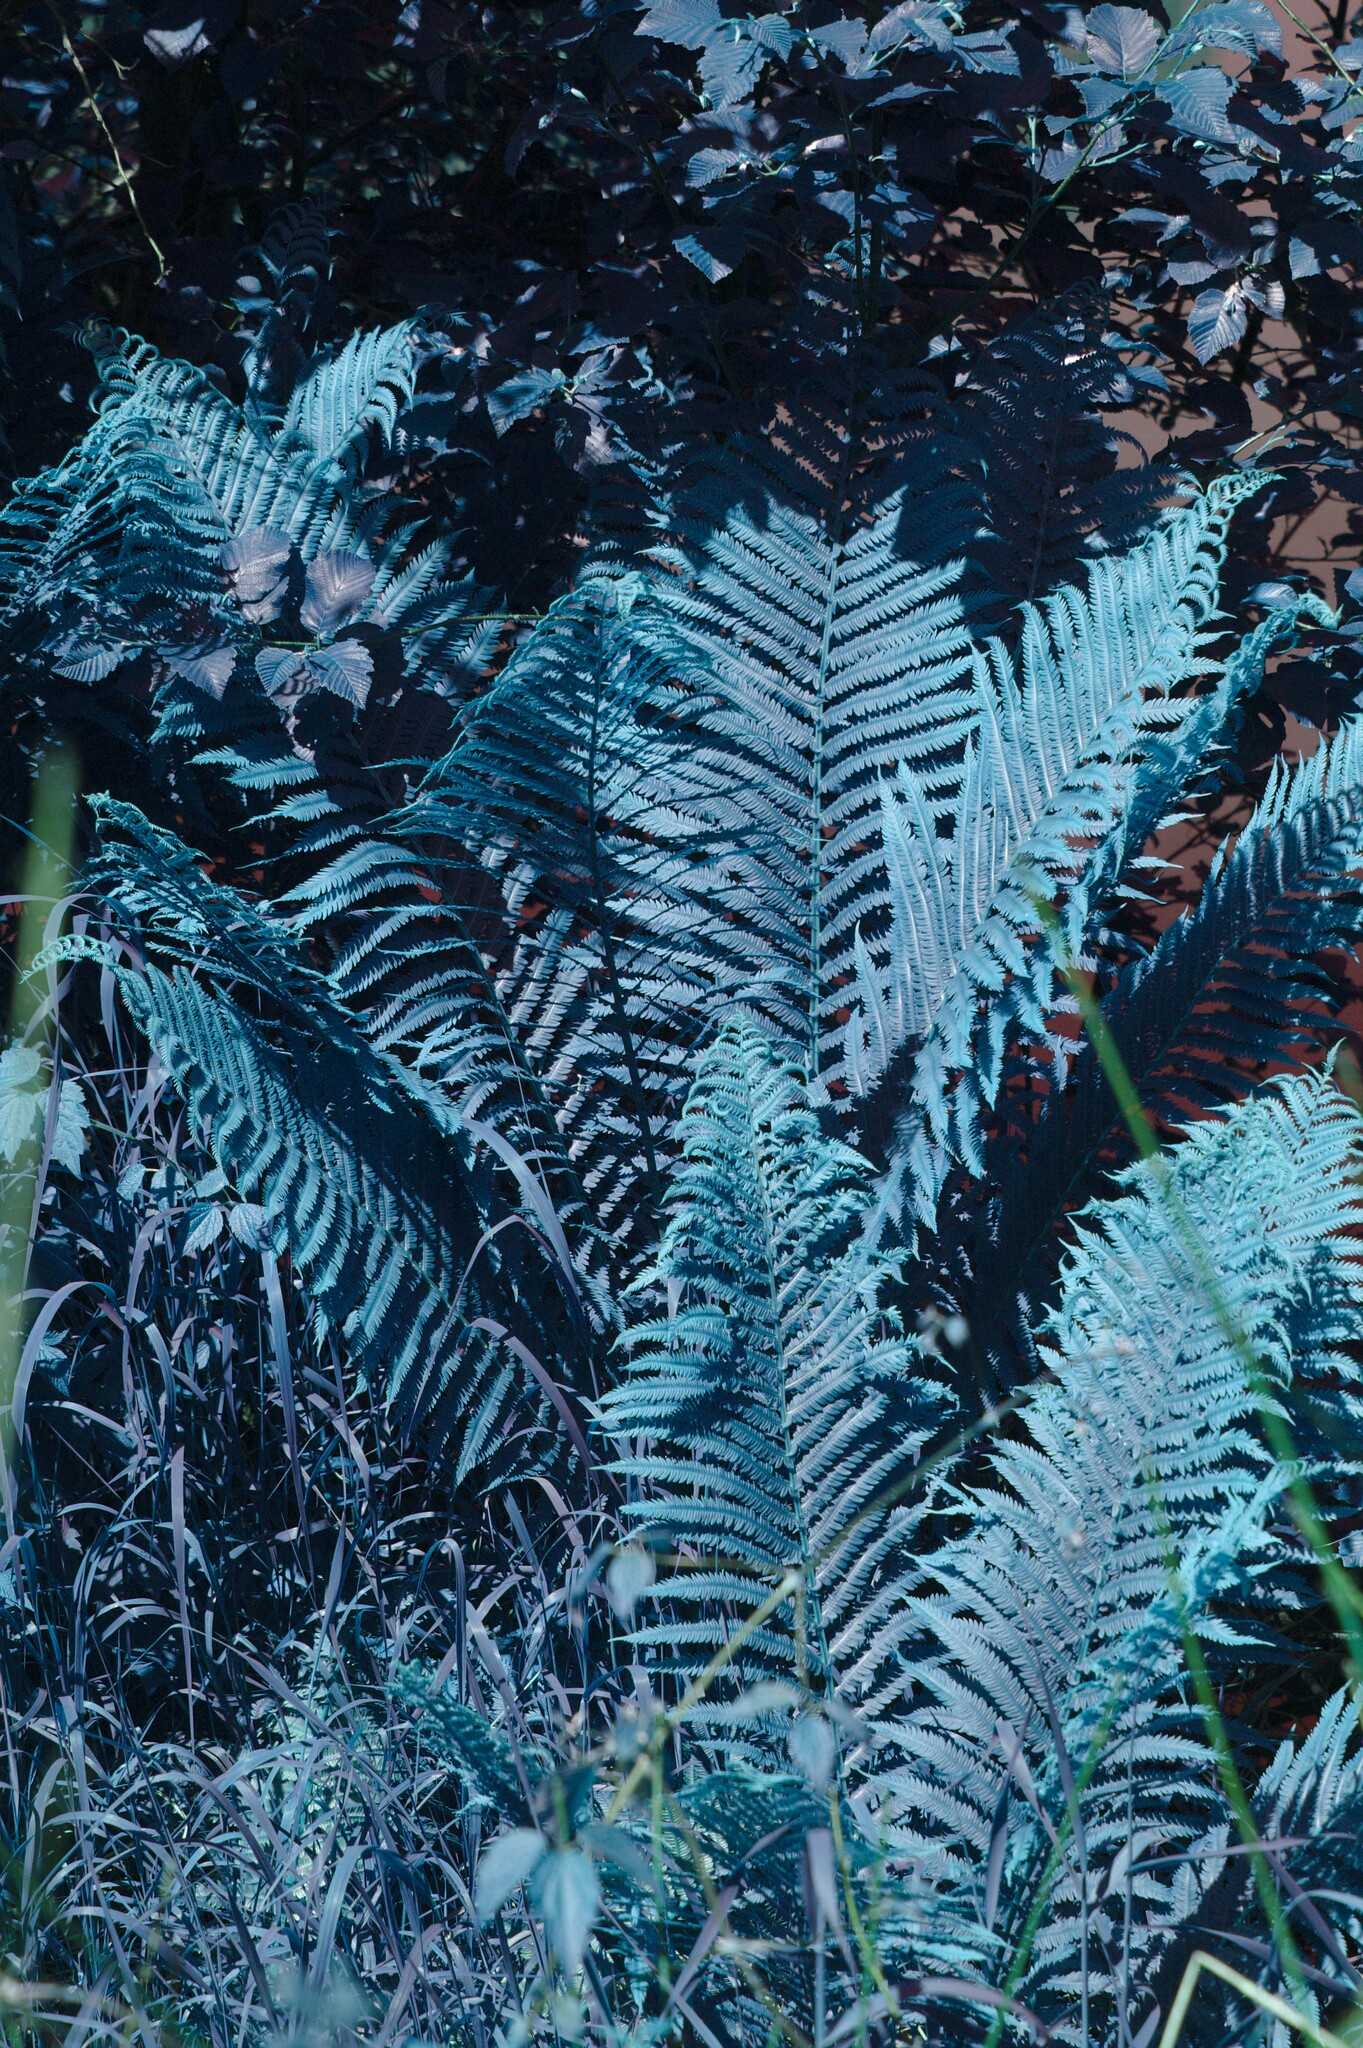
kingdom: Plantae
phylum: Tracheophyta
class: Polypodiopsida
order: Polypodiales
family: Onocleaceae
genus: Matteuccia
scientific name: Matteuccia struthiopteris
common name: Ostrich fern
